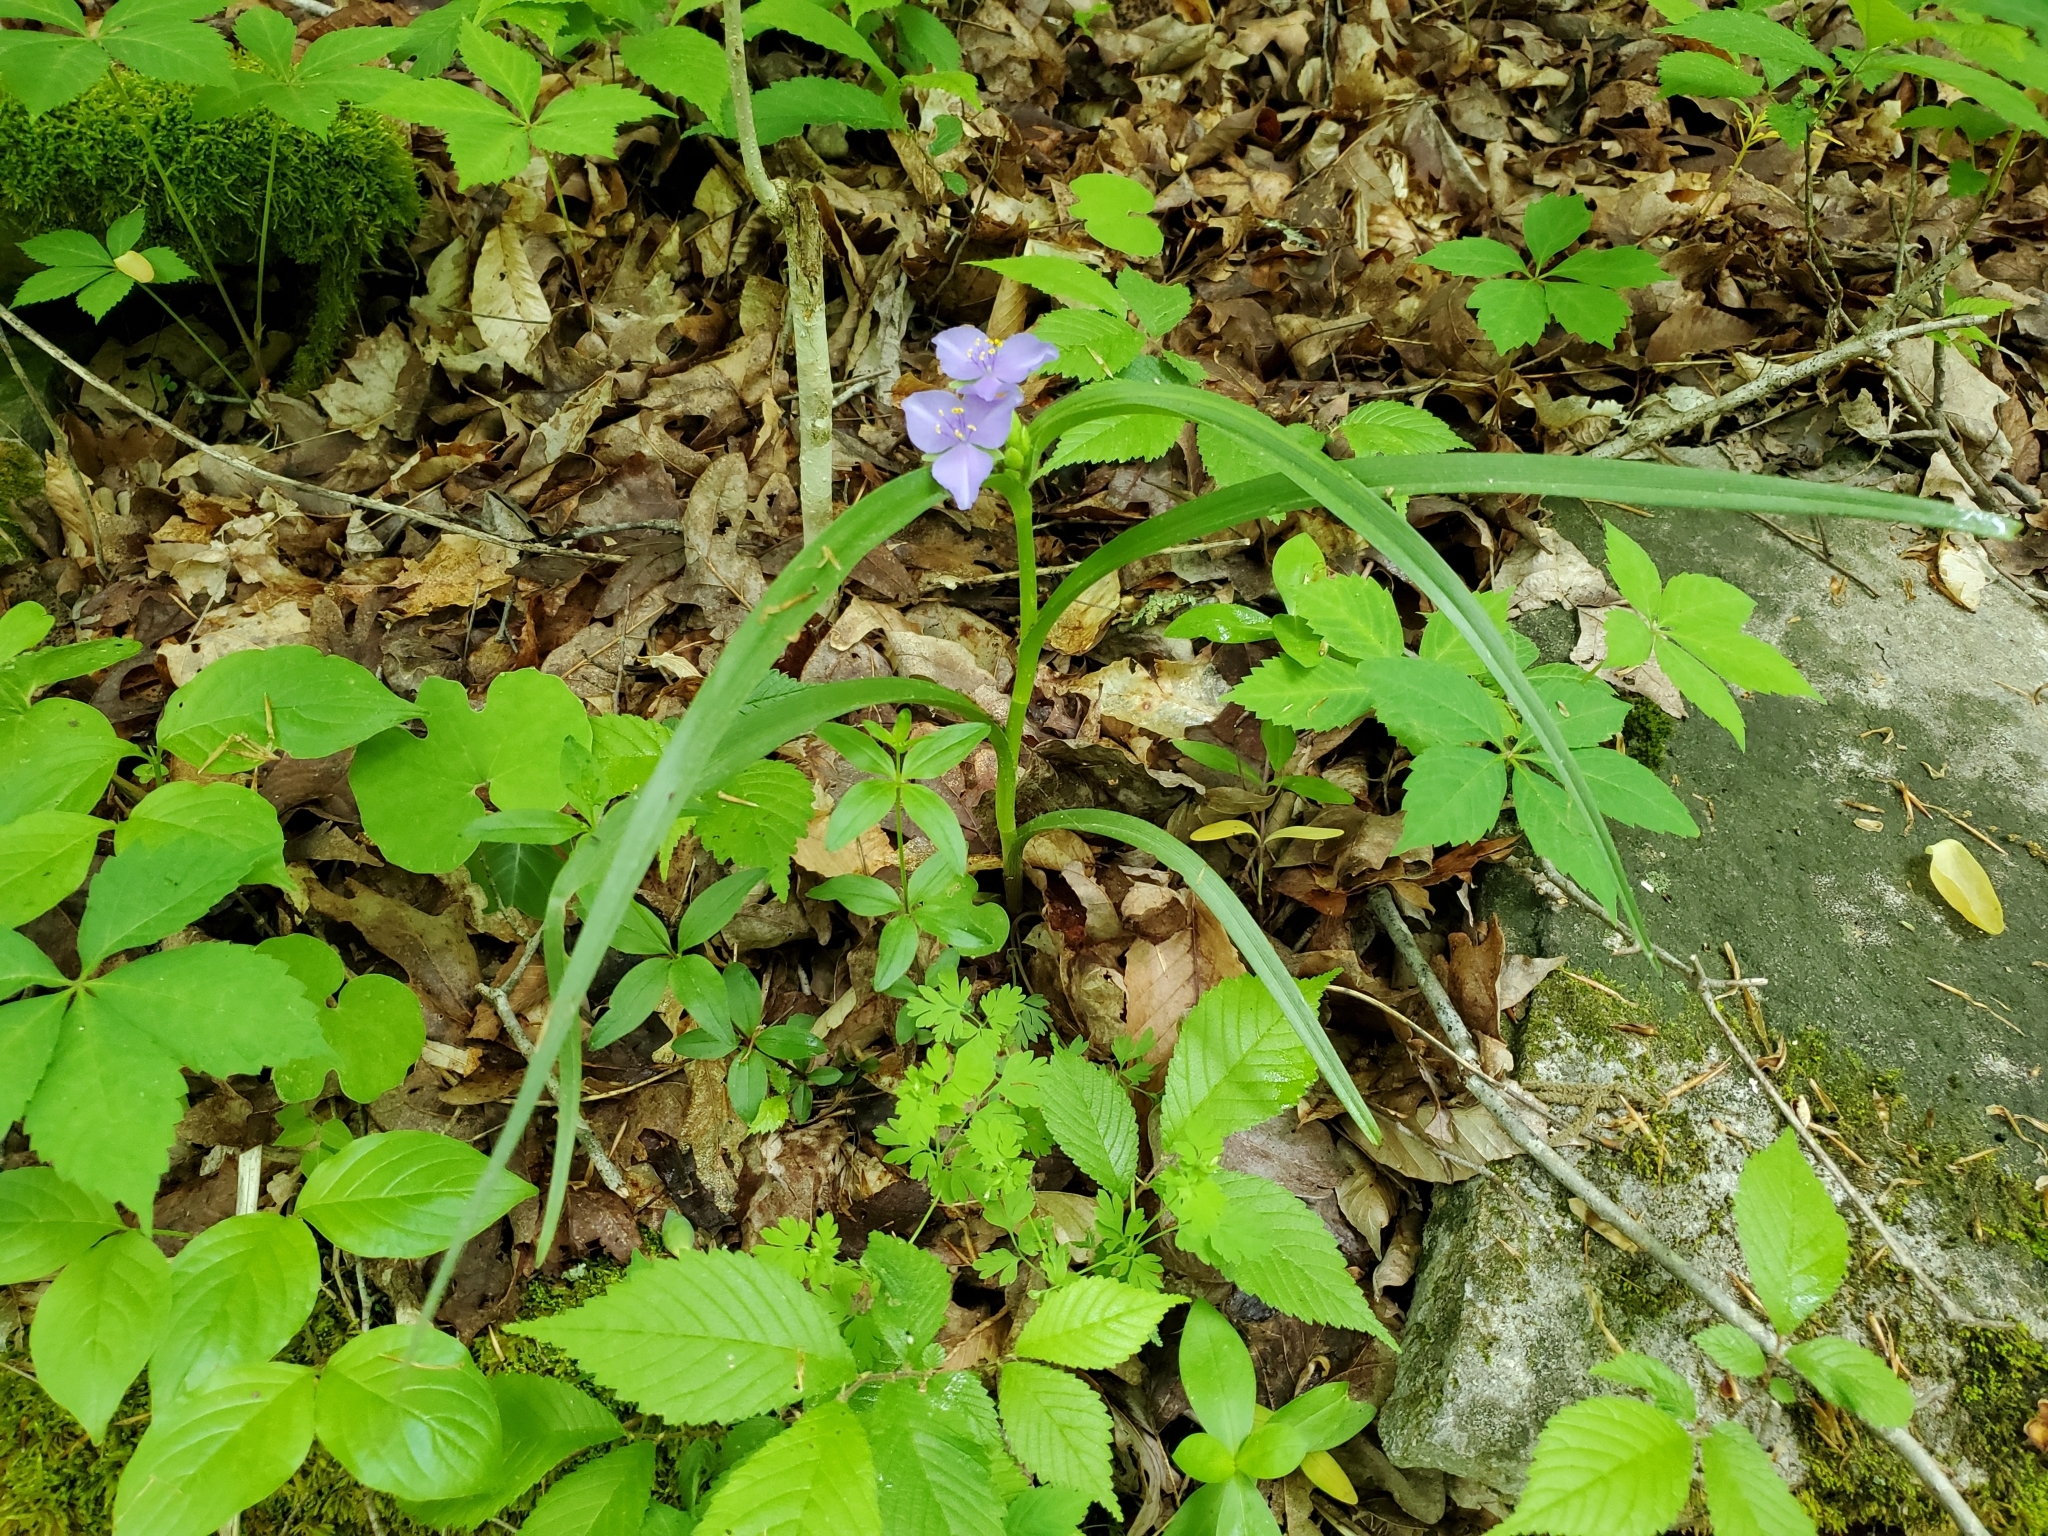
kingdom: Plantae
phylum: Tracheophyta
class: Liliopsida
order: Commelinales
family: Commelinaceae
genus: Tradescantia
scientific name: Tradescantia virginiana
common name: Spiderwort
